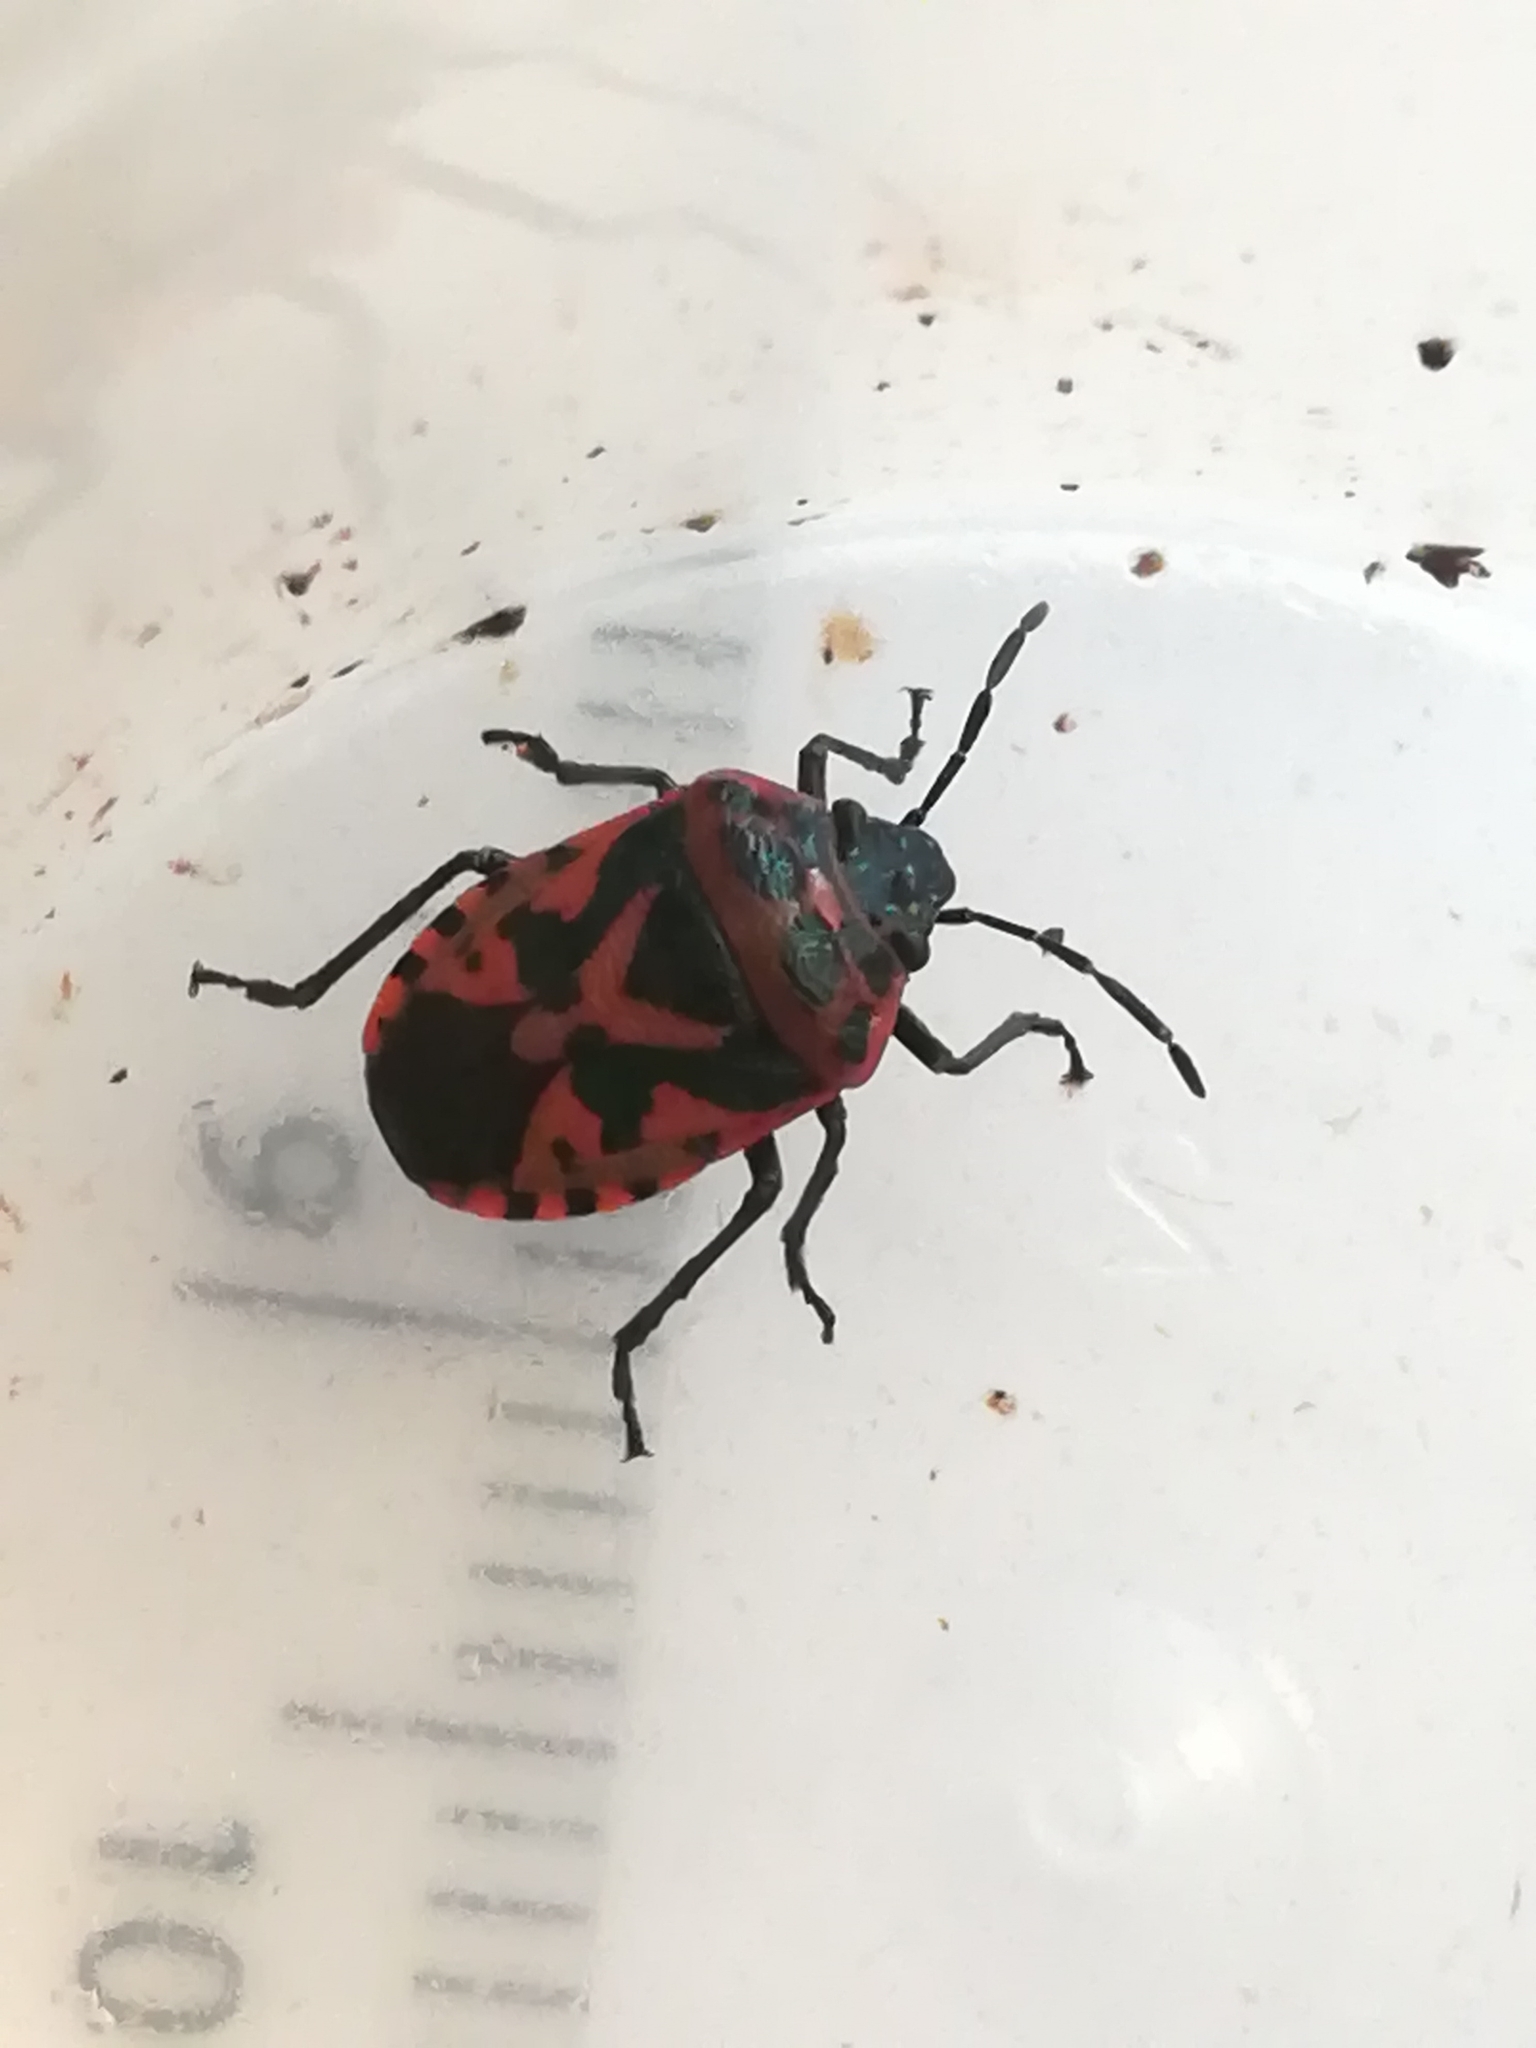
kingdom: Animalia
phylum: Arthropoda
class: Insecta
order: Hemiptera
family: Pentatomidae
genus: Eurydema
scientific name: Eurydema ornata
